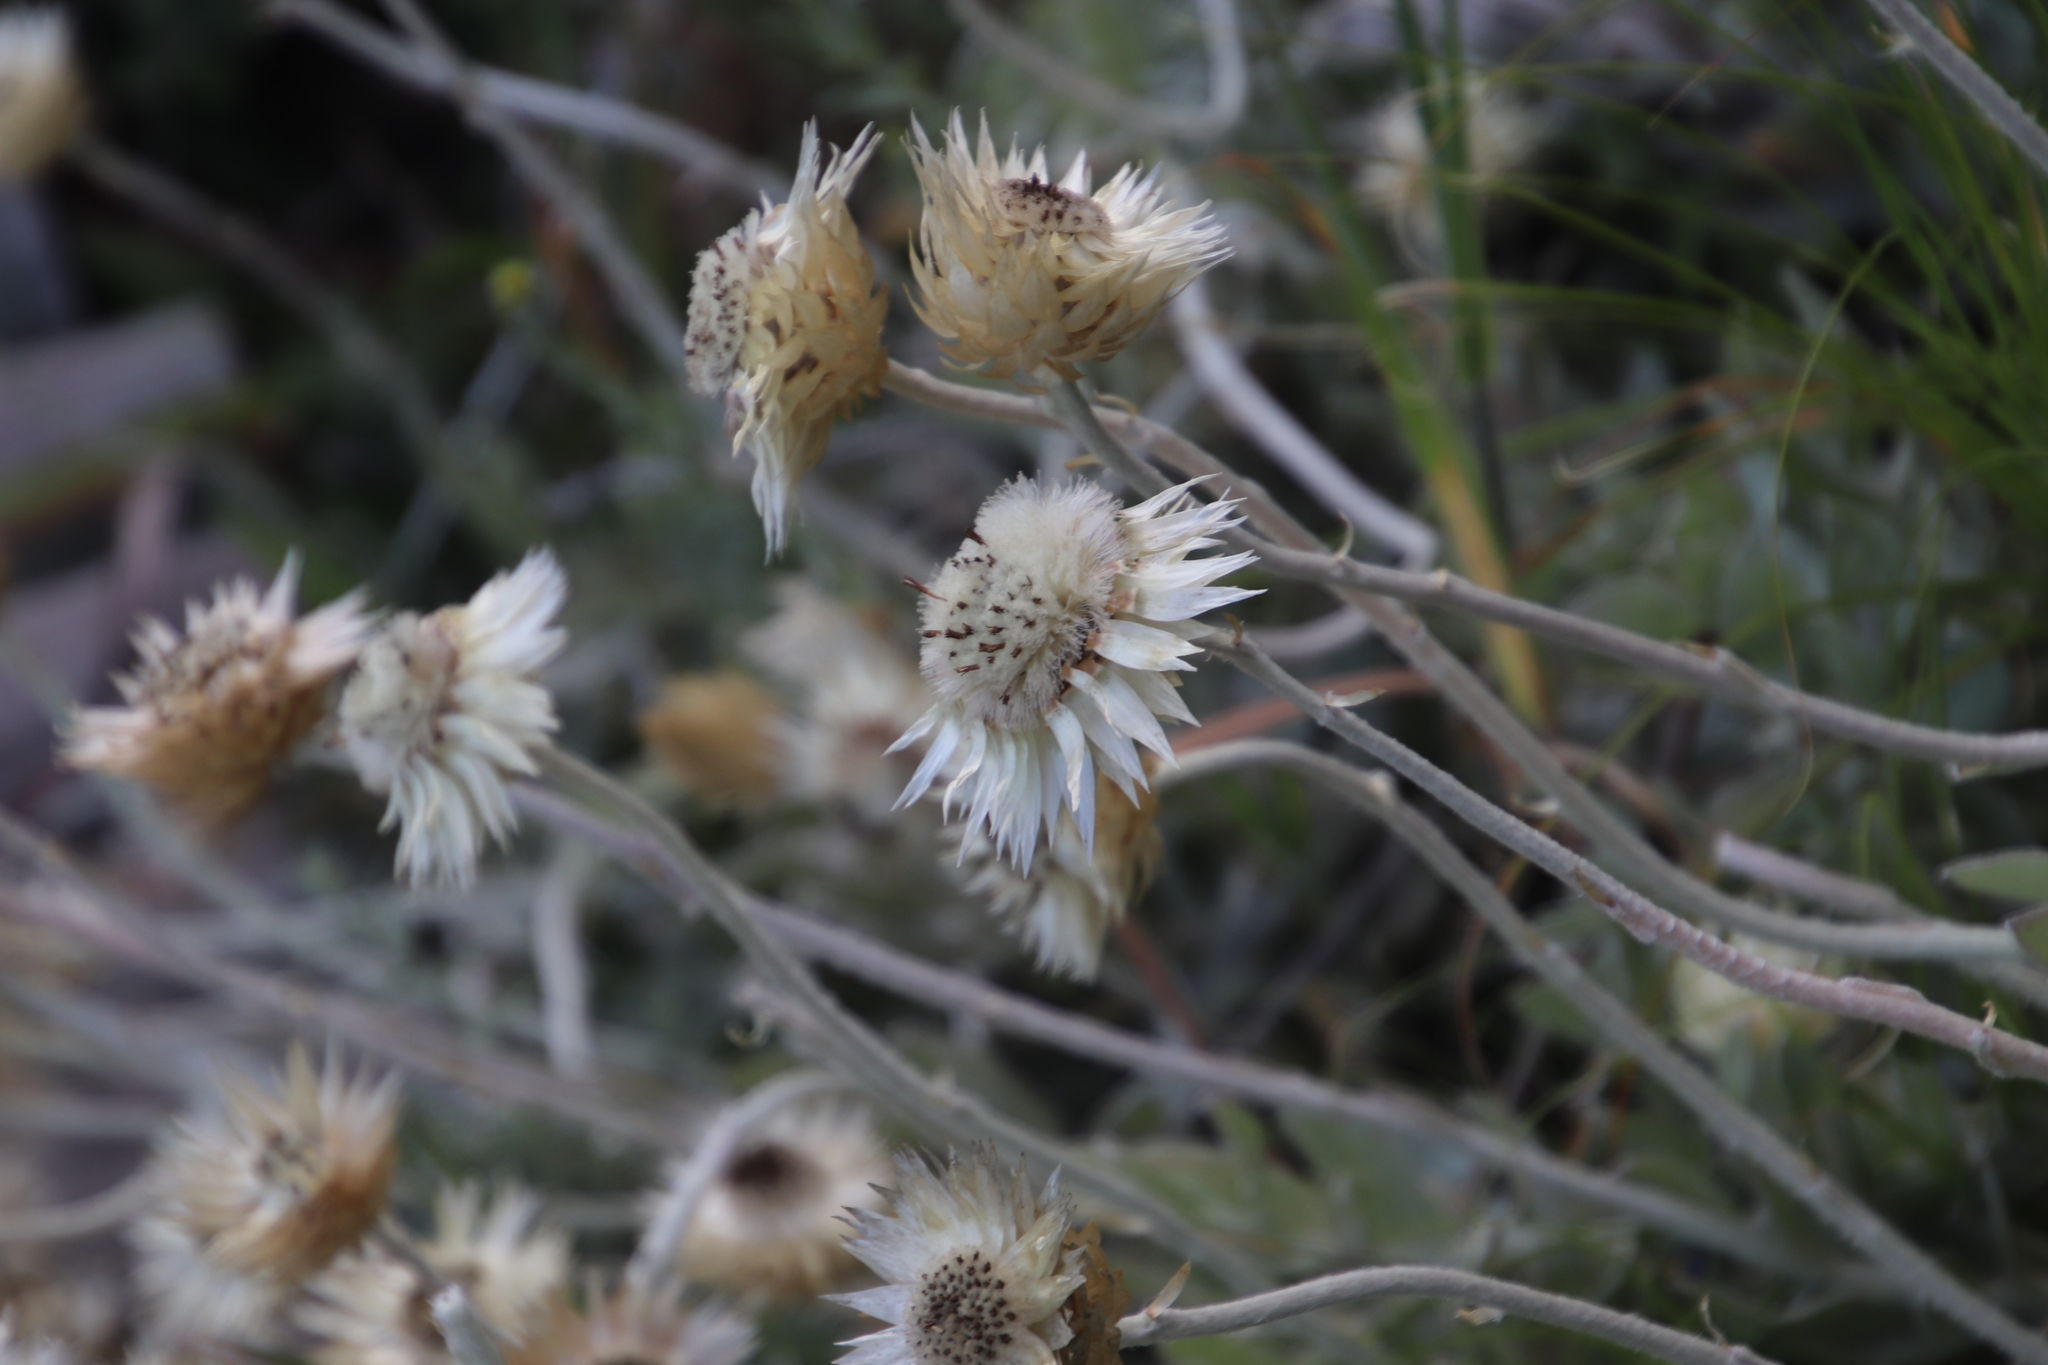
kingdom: Plantae
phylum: Tracheophyta
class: Magnoliopsida
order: Asterales
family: Asteraceae
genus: Syncarpha
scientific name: Syncarpha speciosissima
